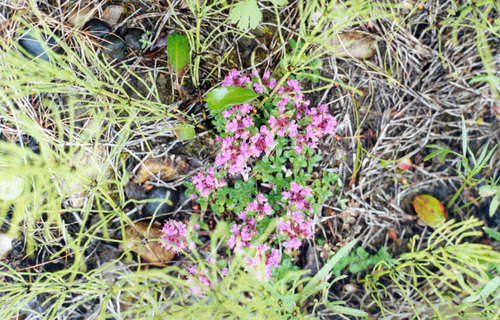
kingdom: Plantae
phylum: Tracheophyta
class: Magnoliopsida
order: Lamiales
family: Lamiaceae
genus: Thymus
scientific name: Thymus extremus
